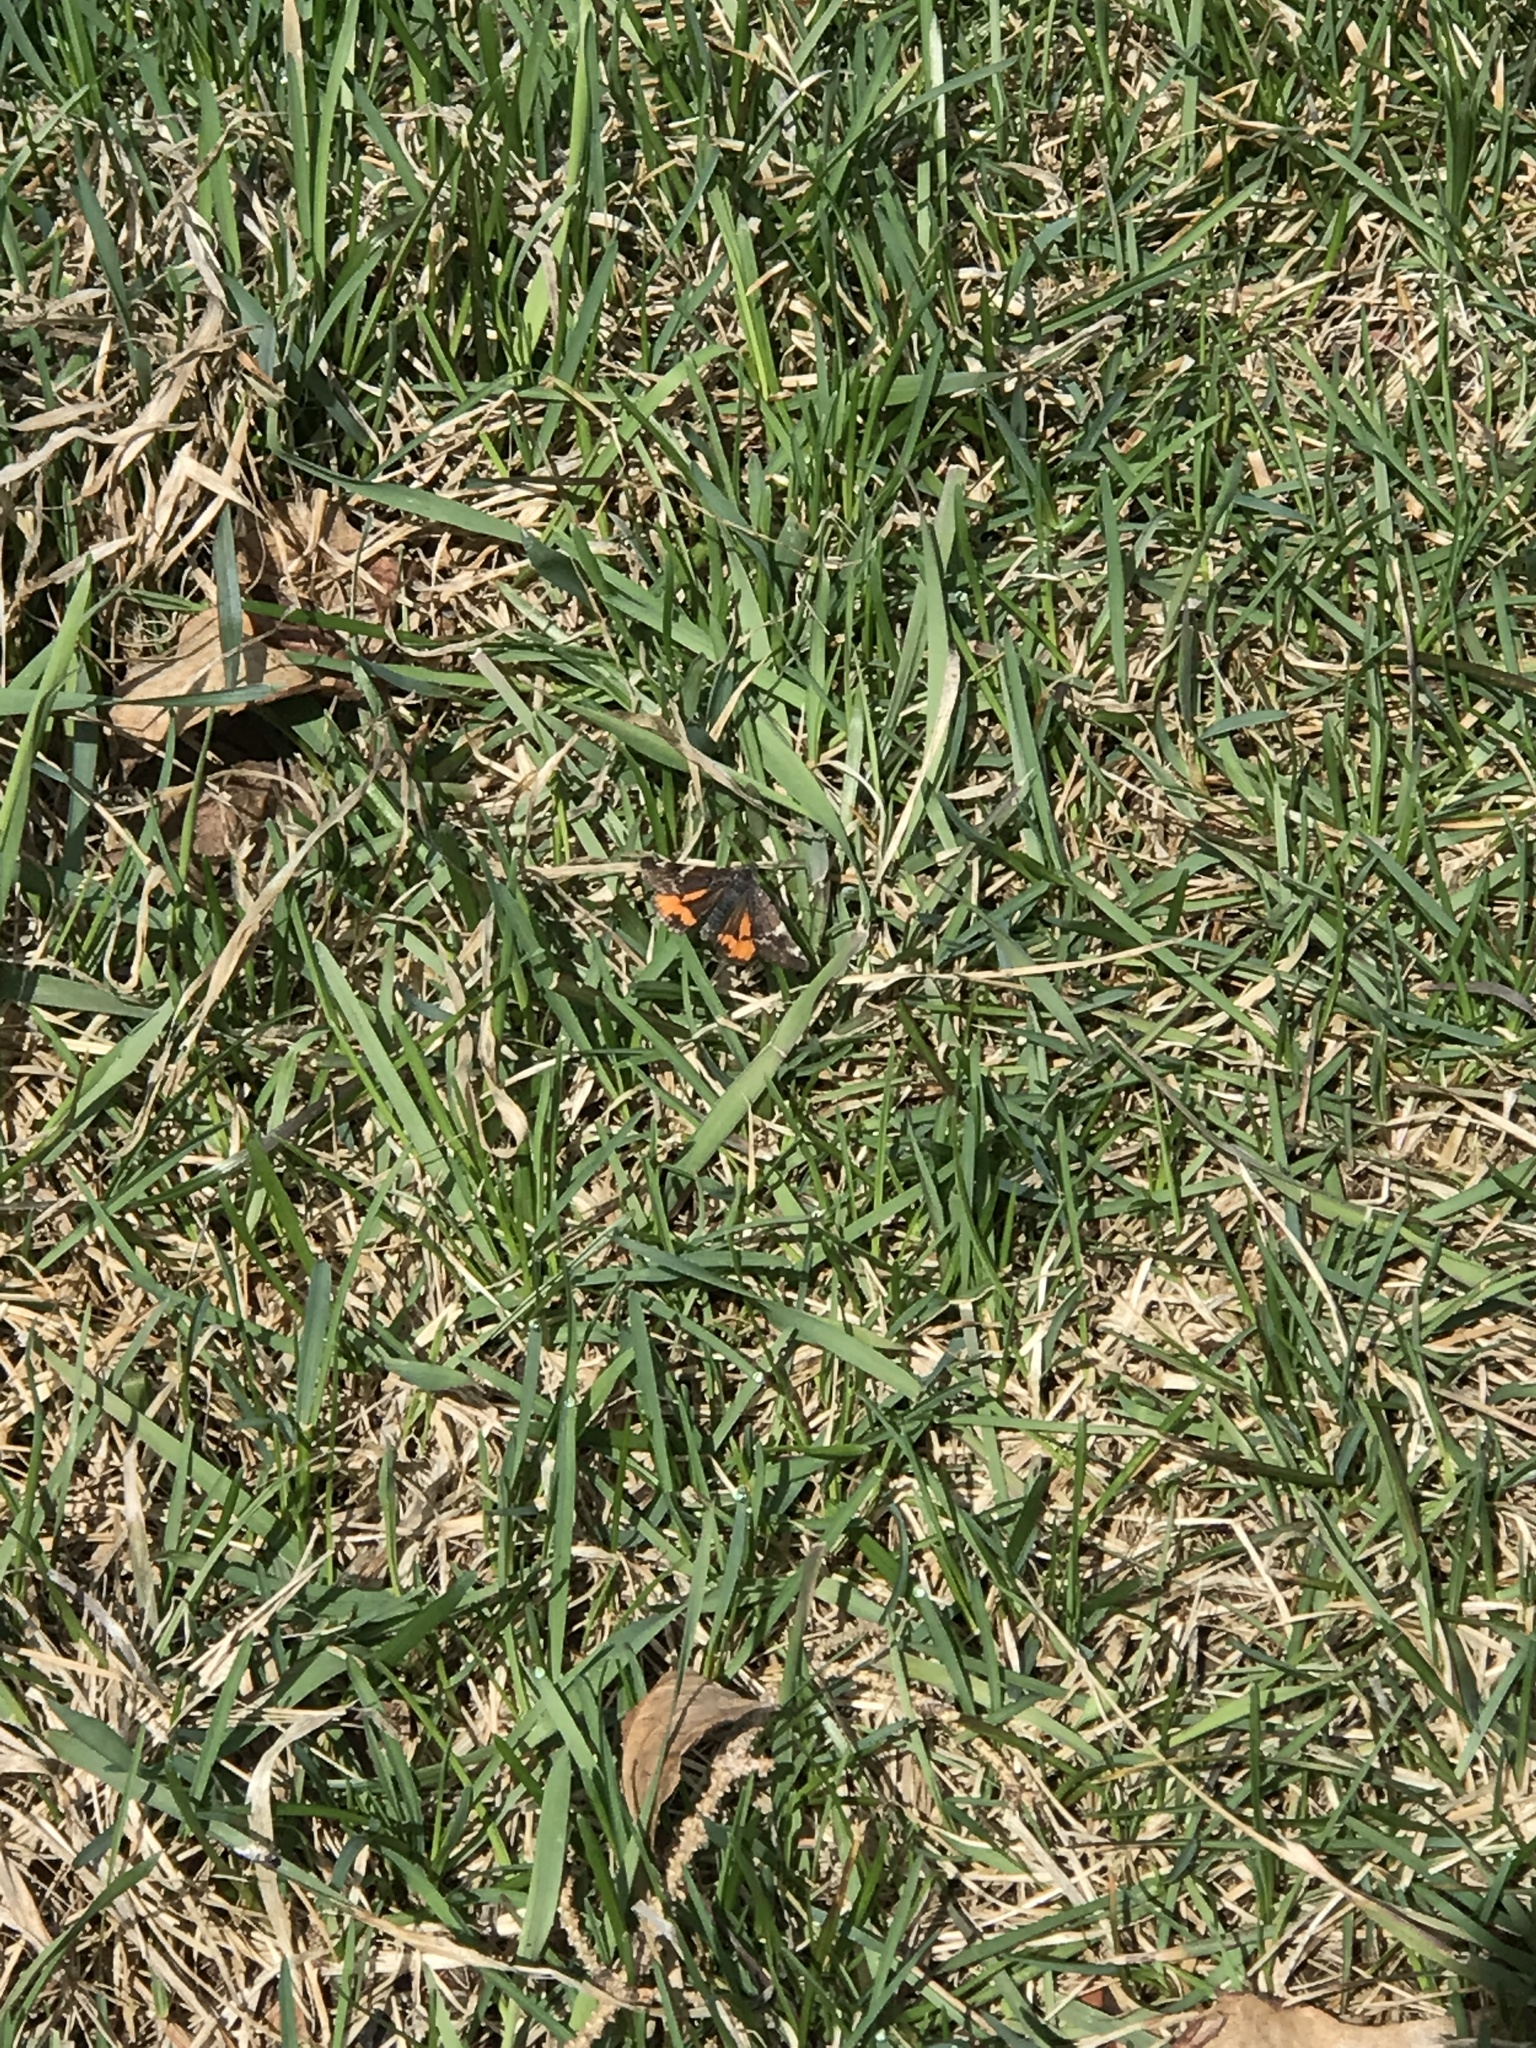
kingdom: Animalia
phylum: Arthropoda
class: Insecta
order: Lepidoptera
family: Geometridae
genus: Archiearis
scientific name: Archiearis infans
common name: First born geometer
